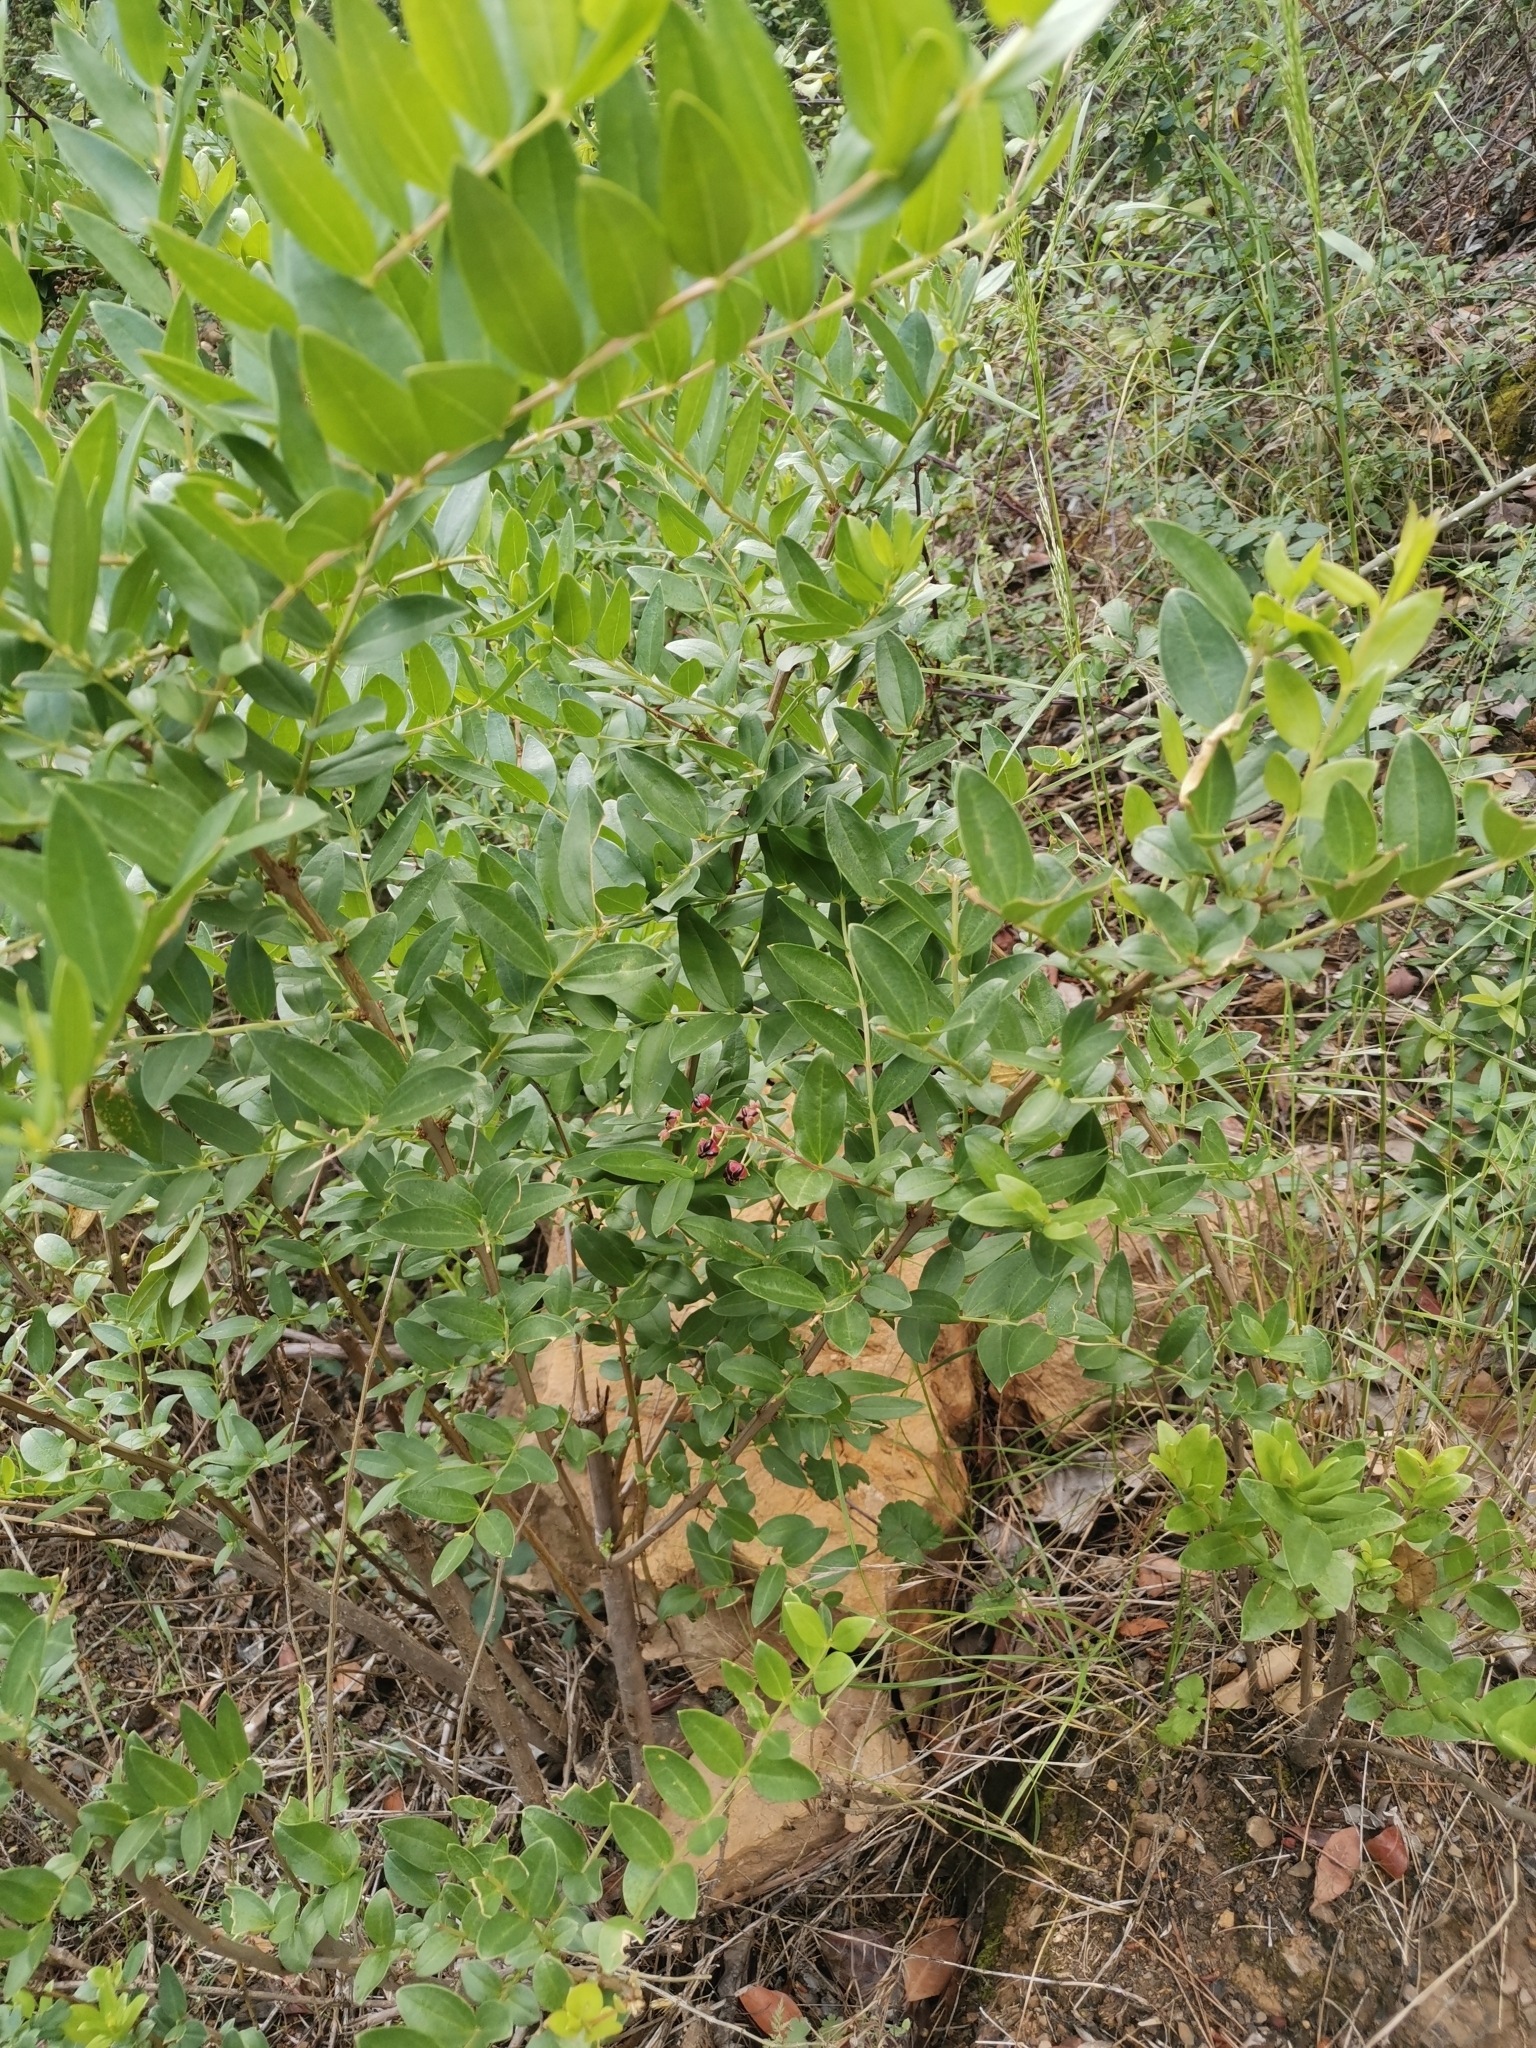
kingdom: Plantae
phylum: Tracheophyta
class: Magnoliopsida
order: Cucurbitales
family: Coriariaceae
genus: Coriaria
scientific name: Coriaria myrtifolia
